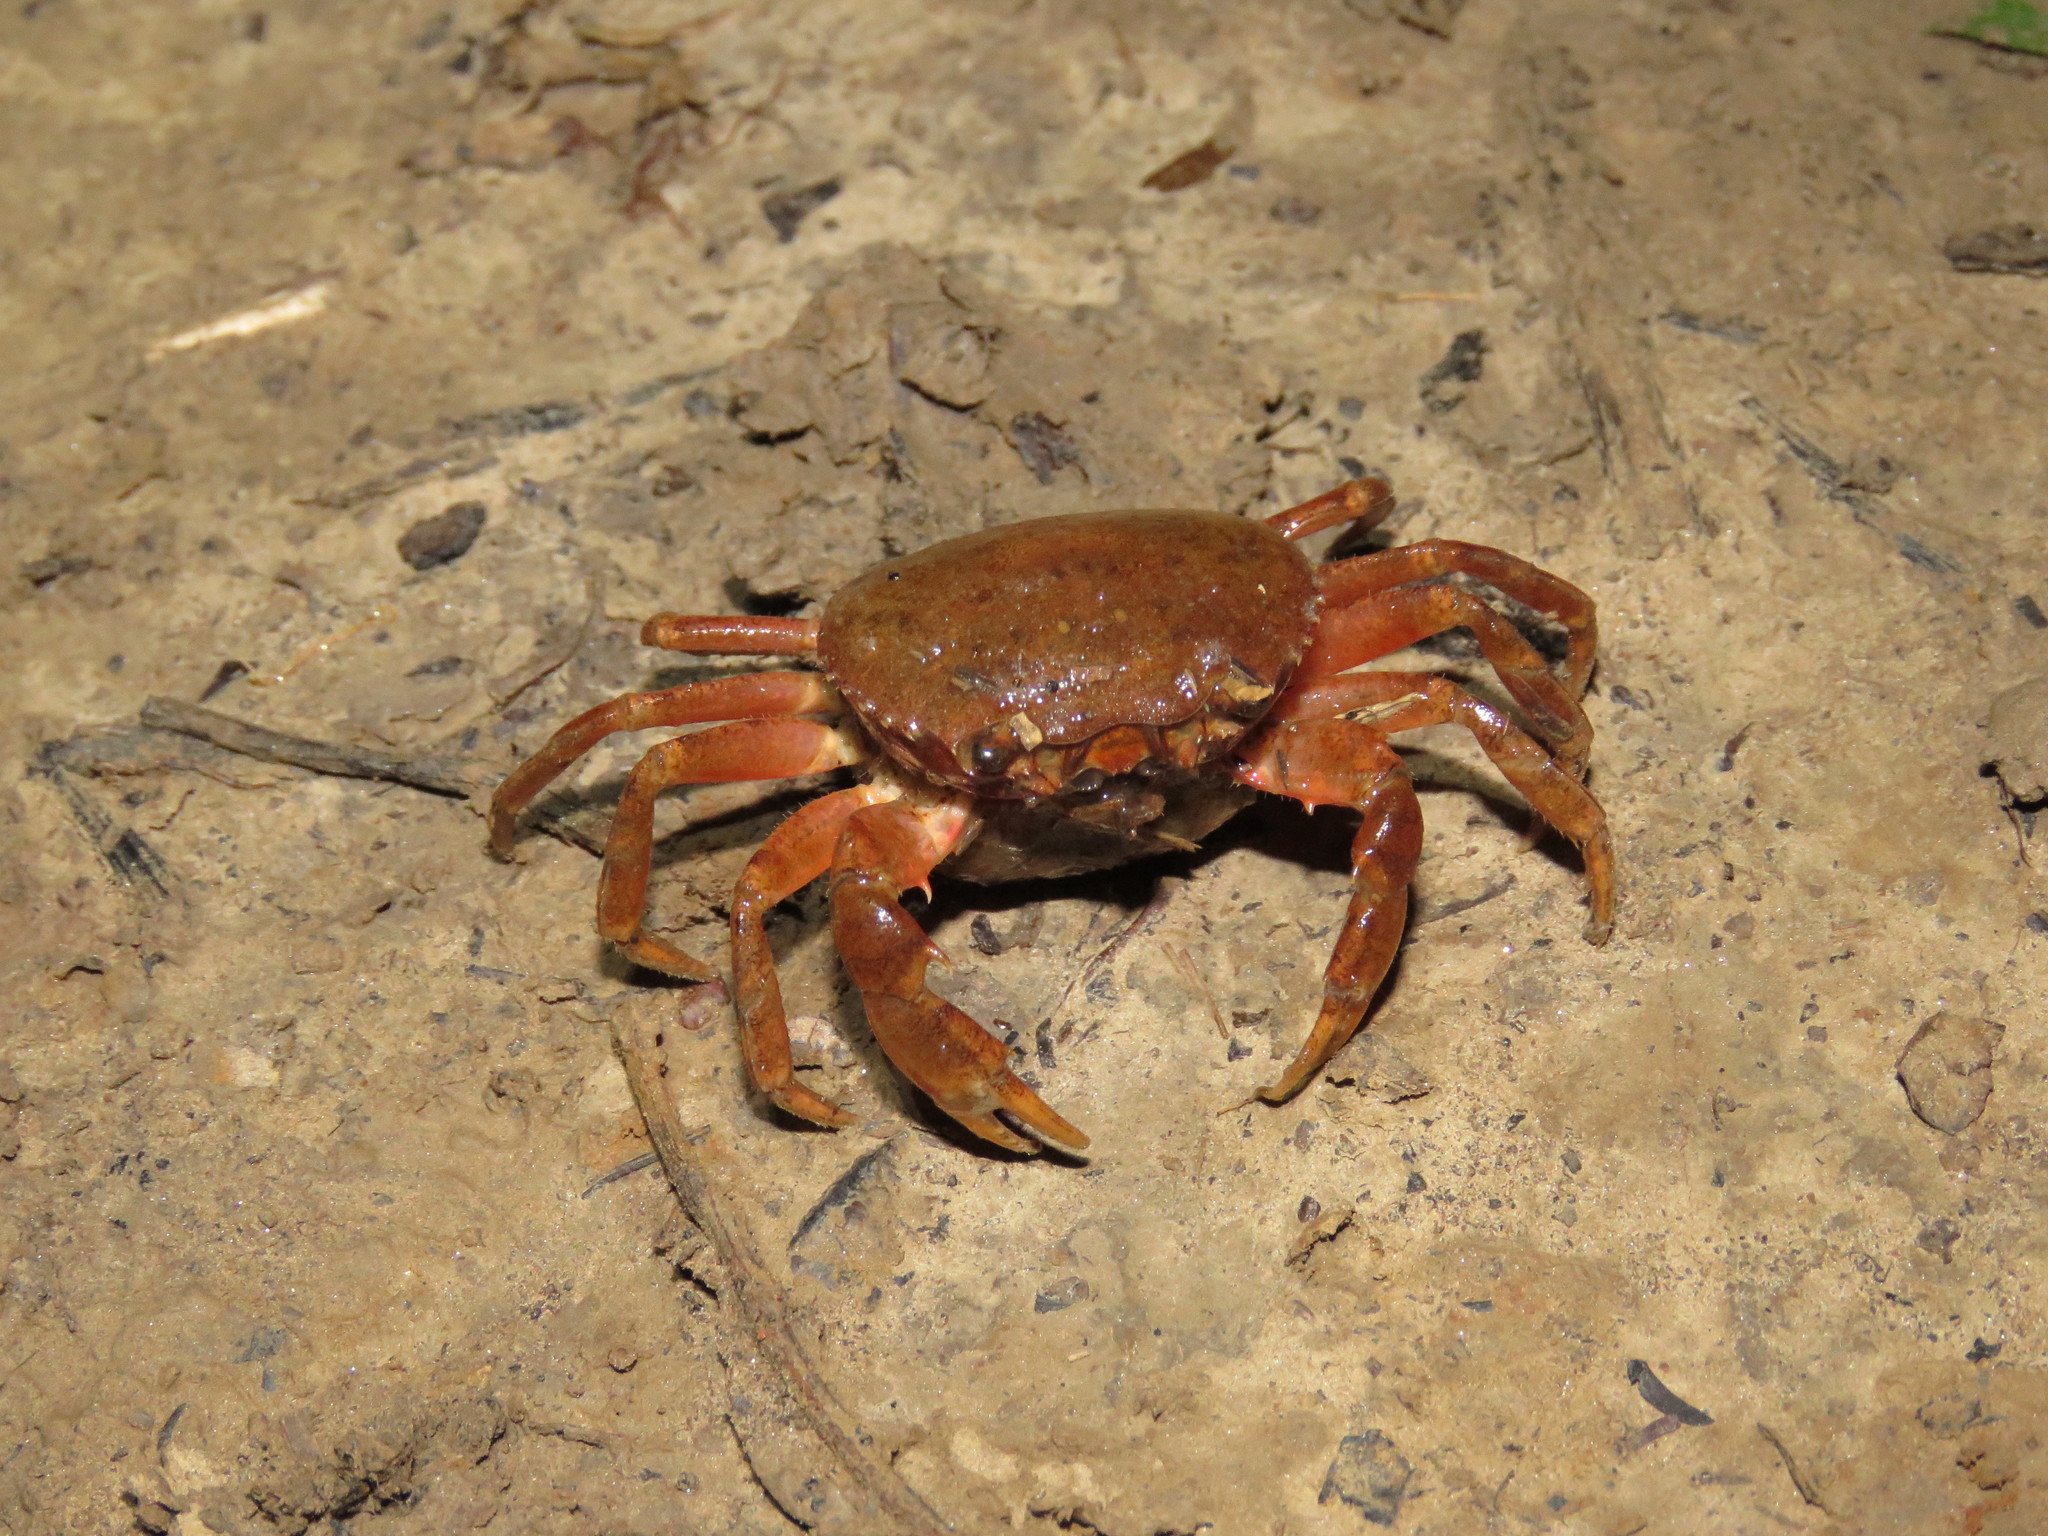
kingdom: Animalia
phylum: Arthropoda
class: Malacostraca
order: Decapoda
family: Trichodactylidae
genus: Dilocarcinus
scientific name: Dilocarcinus pagei
